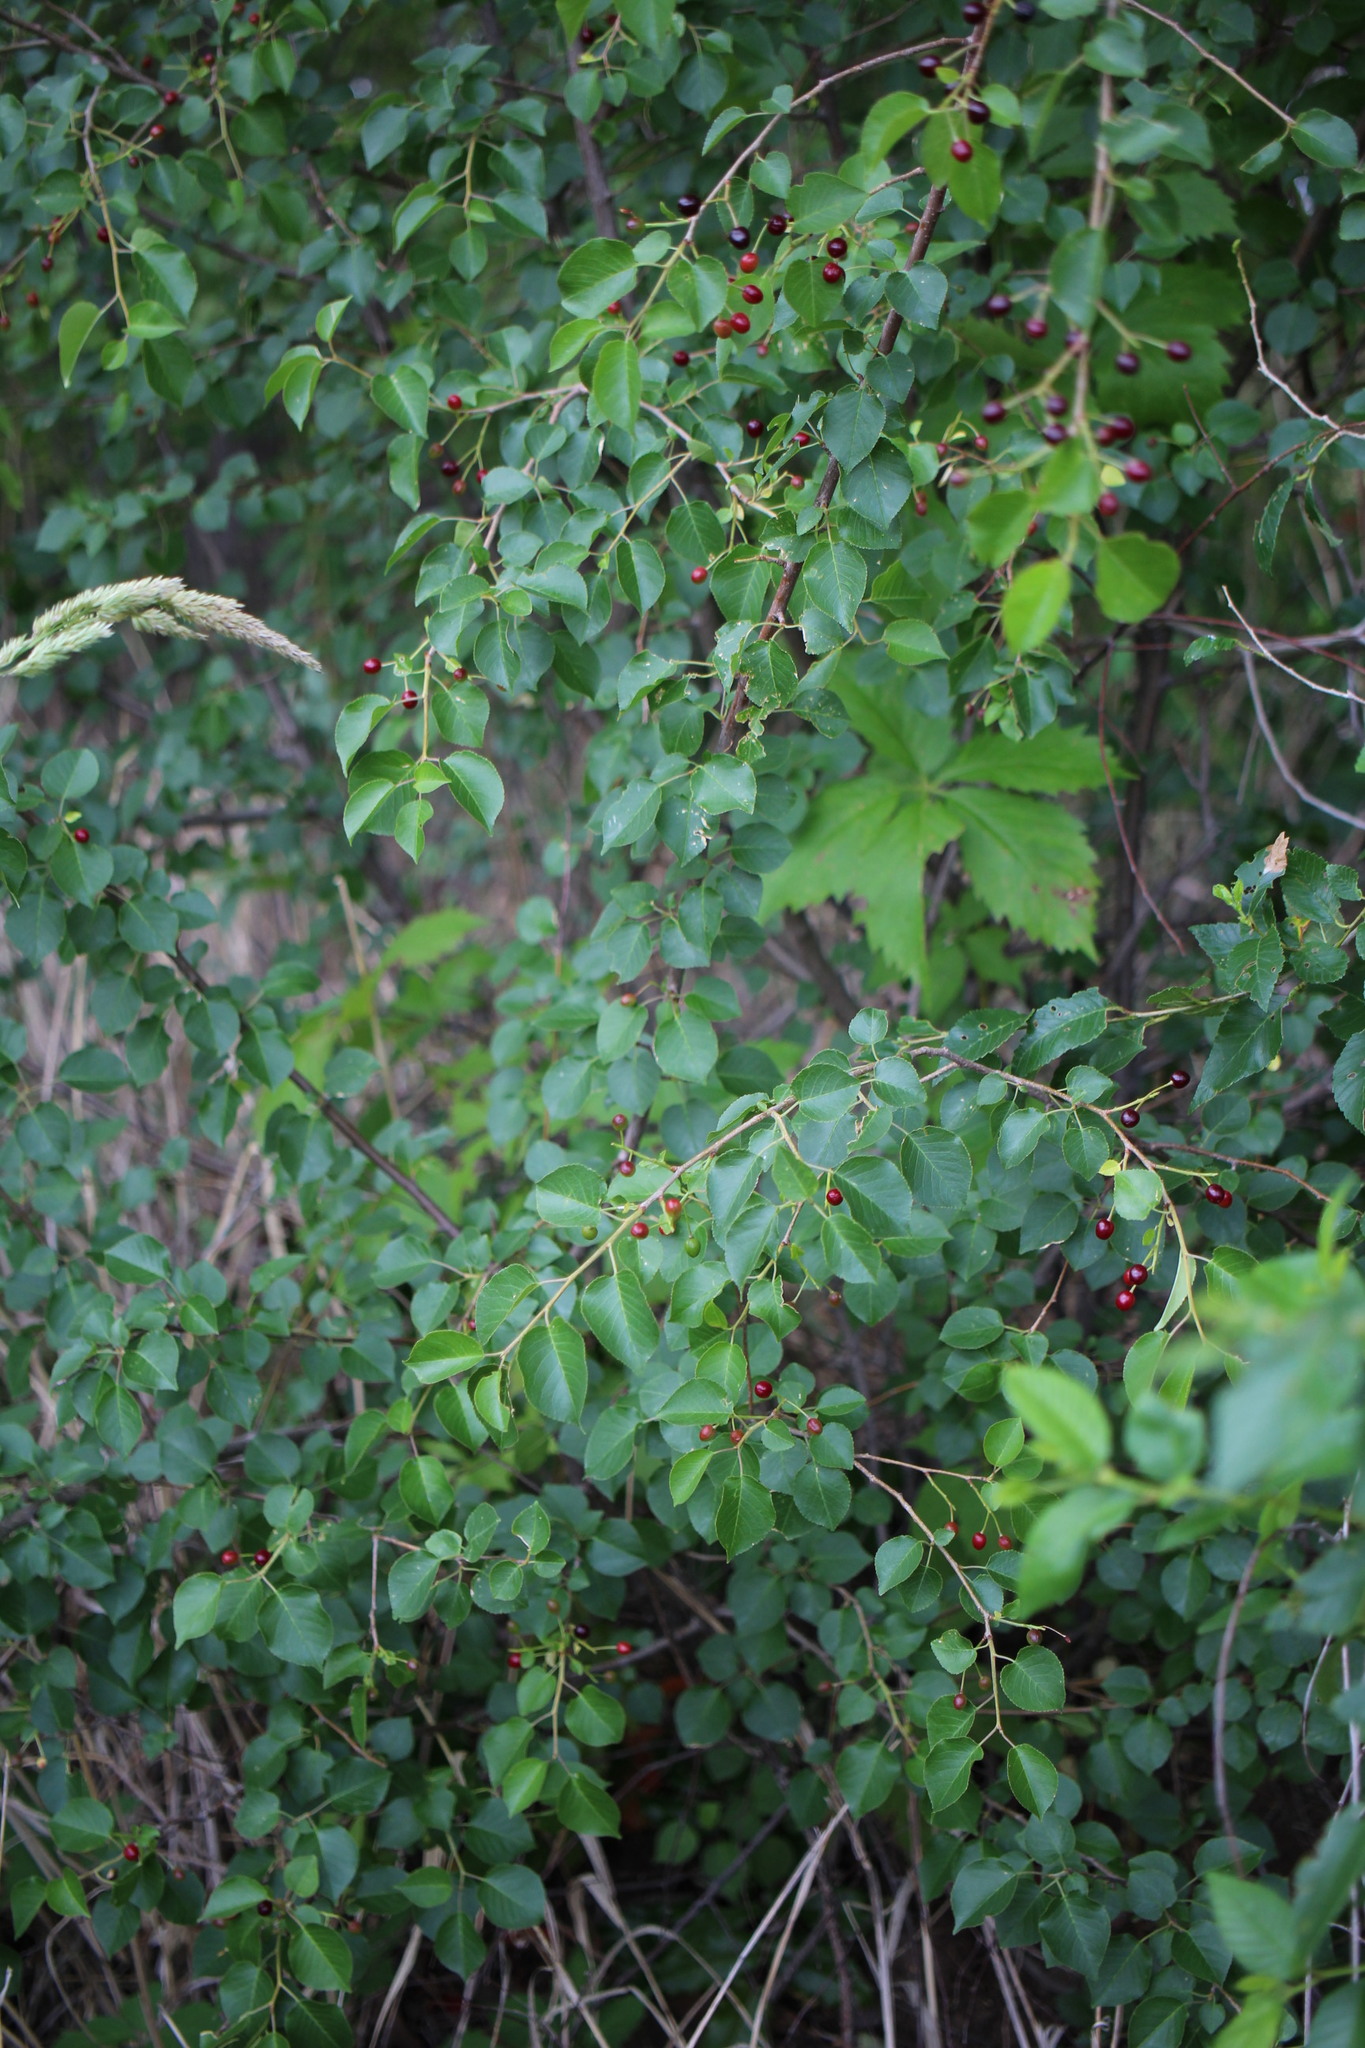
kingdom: Plantae
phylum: Tracheophyta
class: Magnoliopsida
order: Rosales
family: Rosaceae
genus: Prunus
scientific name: Prunus mahaleb
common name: Mahaleb cherry
